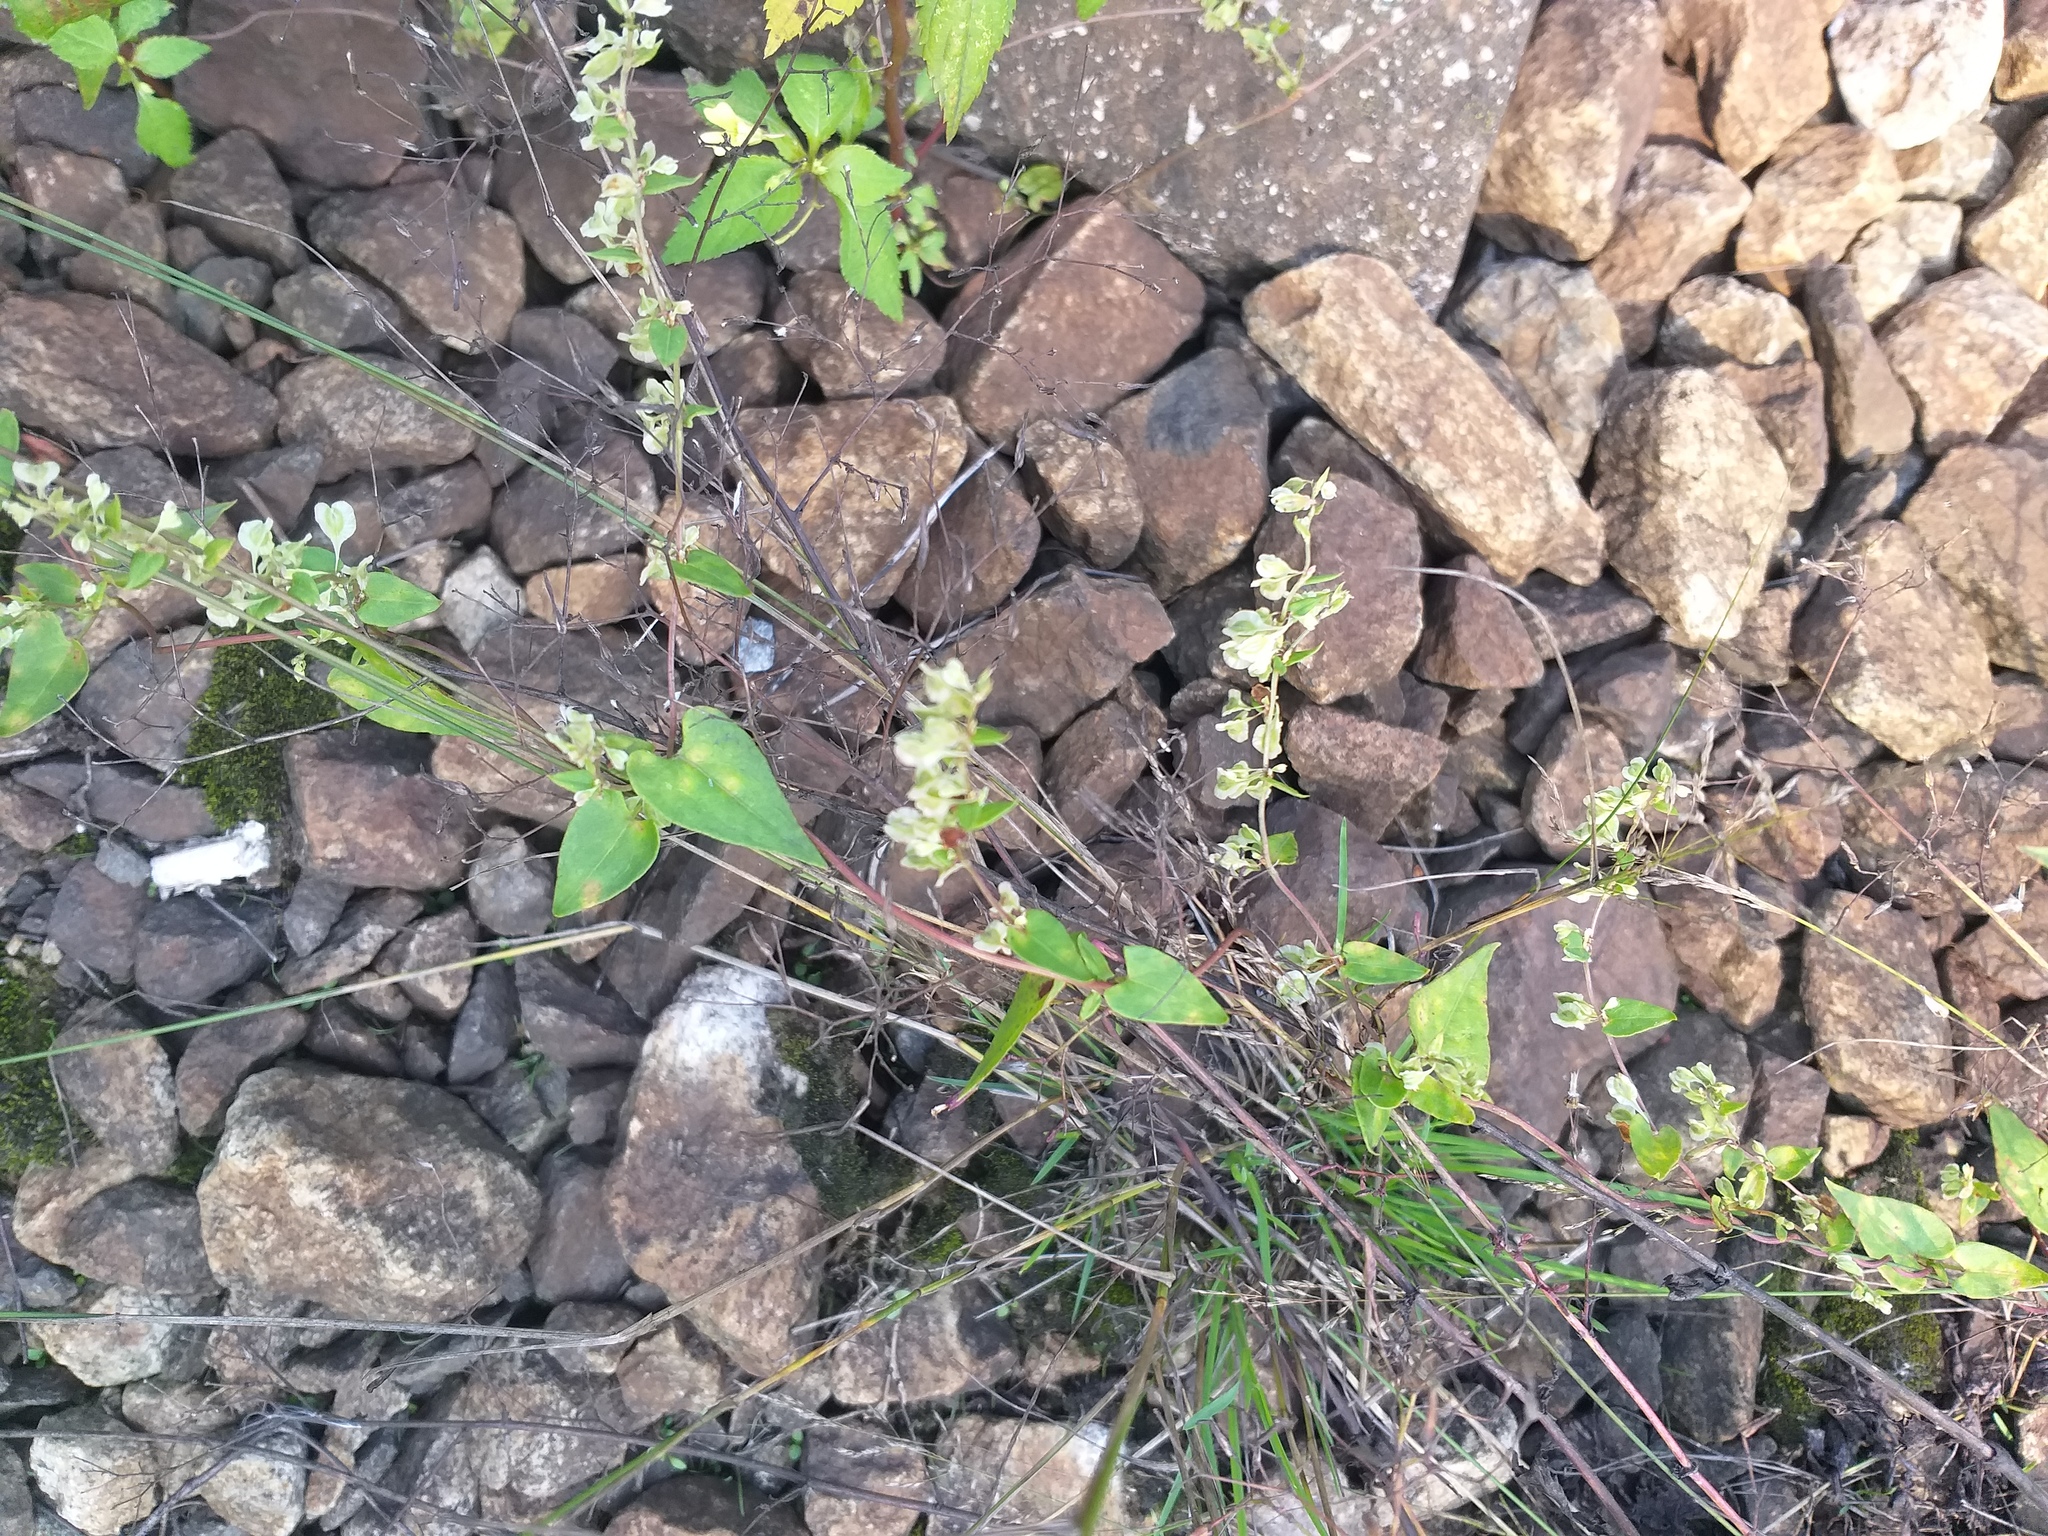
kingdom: Plantae
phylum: Tracheophyta
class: Magnoliopsida
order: Caryophyllales
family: Polygonaceae
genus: Fallopia
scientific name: Fallopia dumetorum
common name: Copse-bindweed
